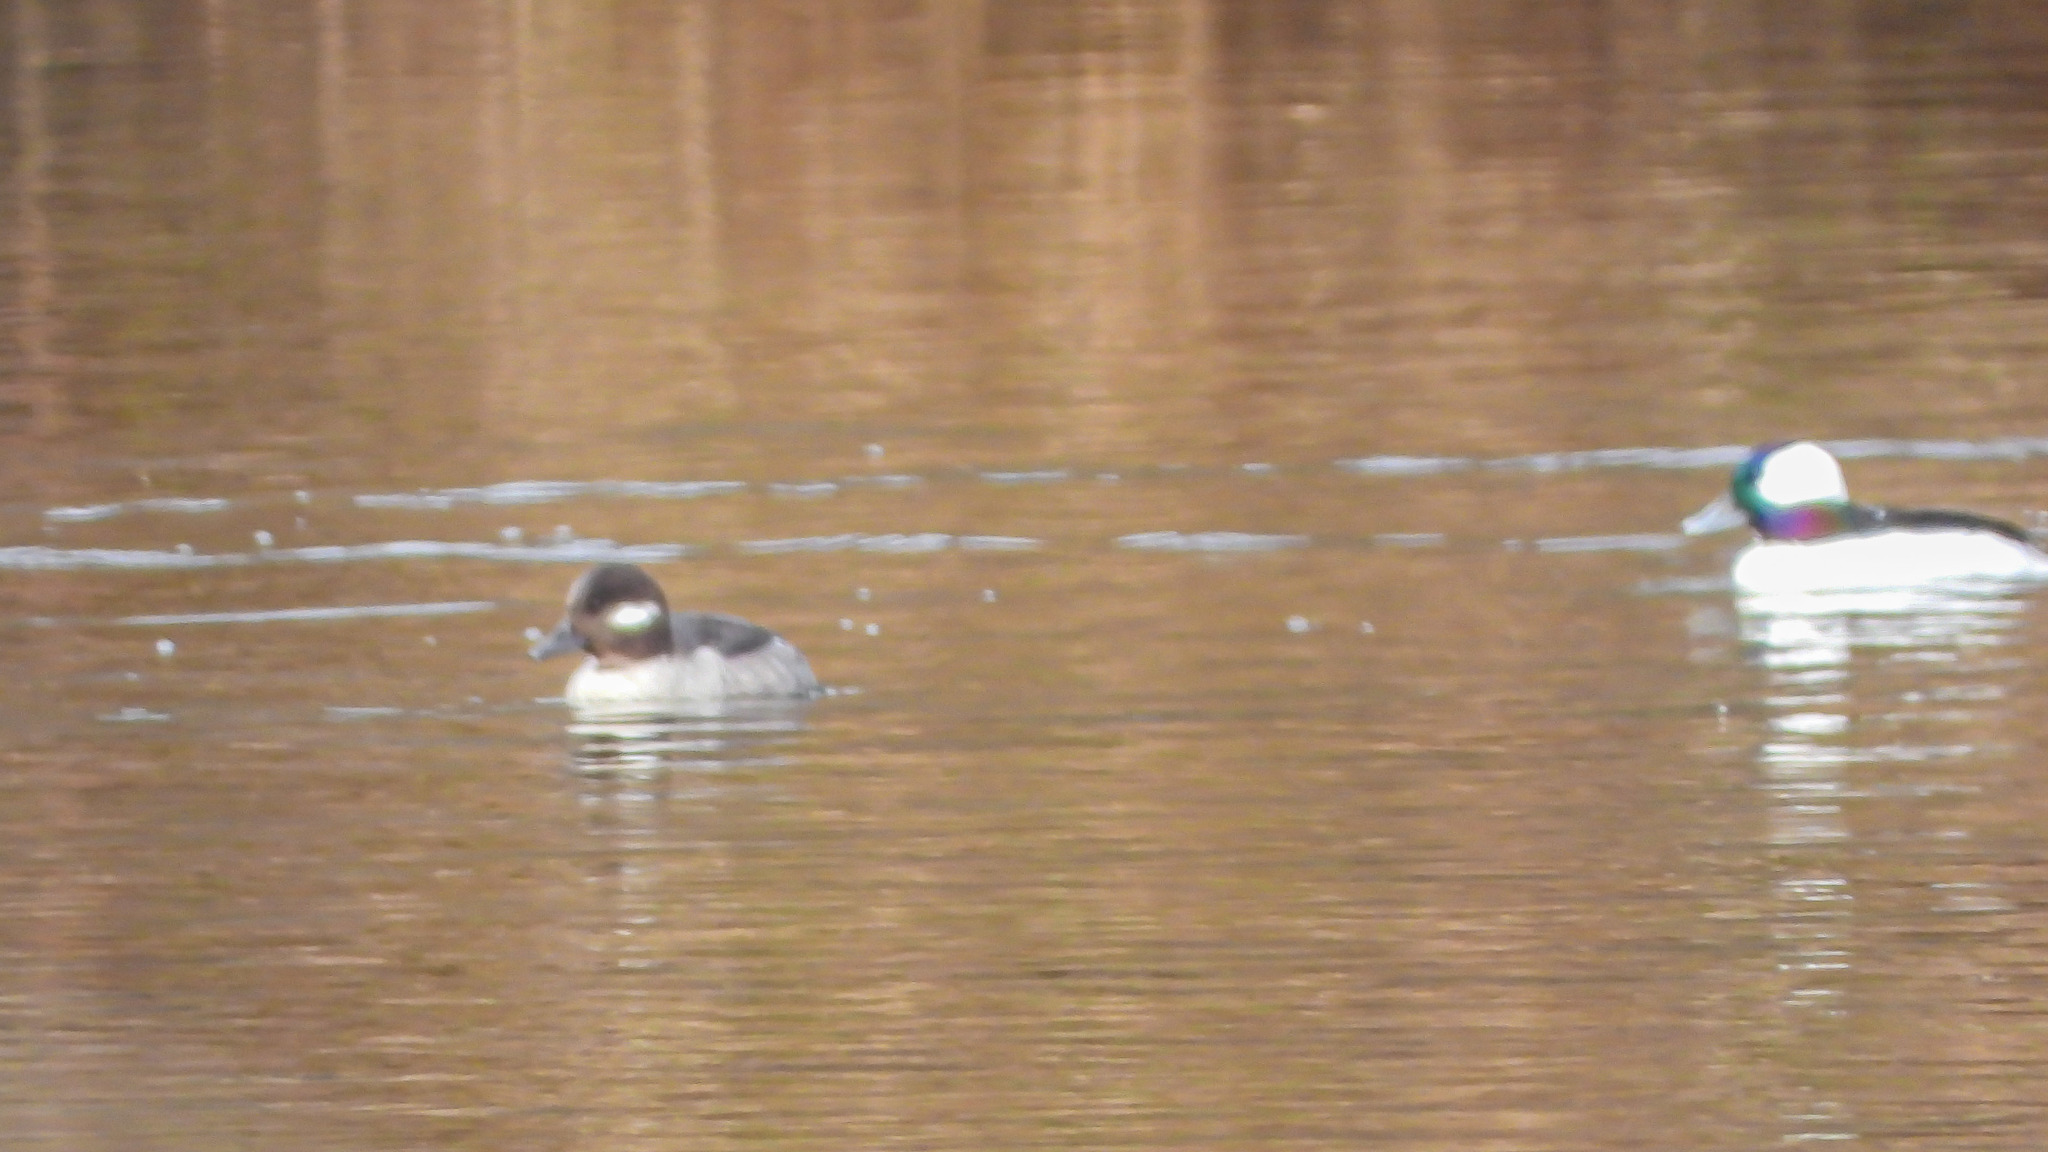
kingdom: Animalia
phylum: Chordata
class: Aves
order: Anseriformes
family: Anatidae
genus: Bucephala
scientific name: Bucephala albeola
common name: Bufflehead
